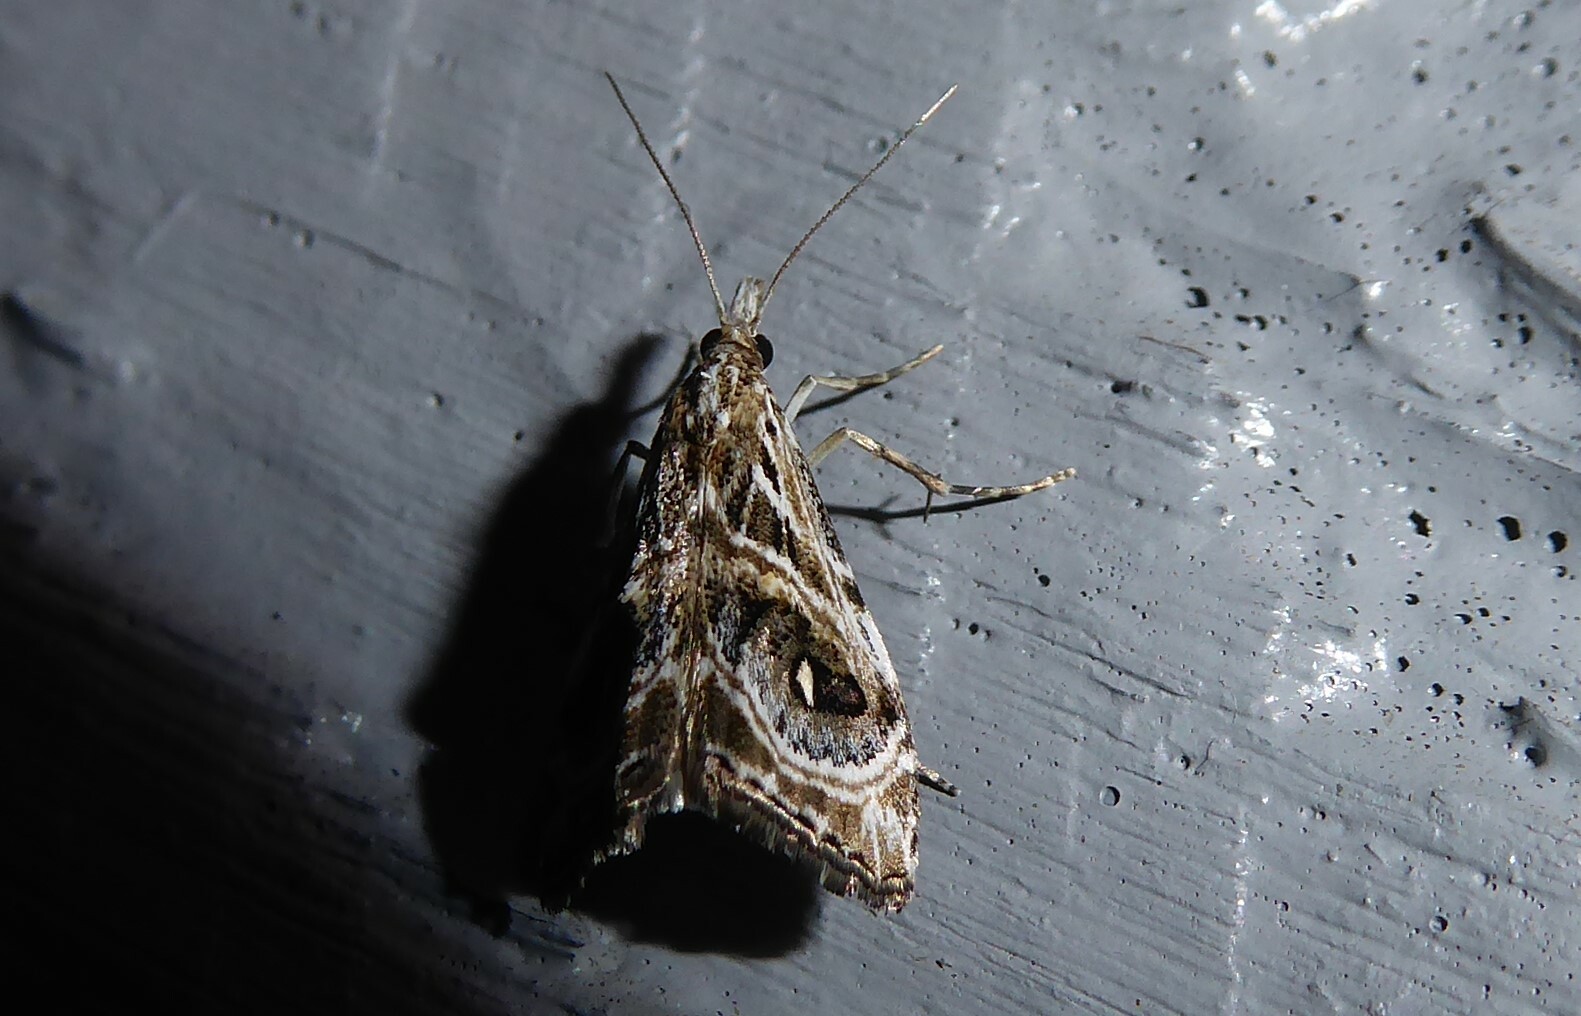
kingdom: Animalia
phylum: Arthropoda
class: Insecta
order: Lepidoptera
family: Crambidae
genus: Gadira
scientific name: Gadira acerella
